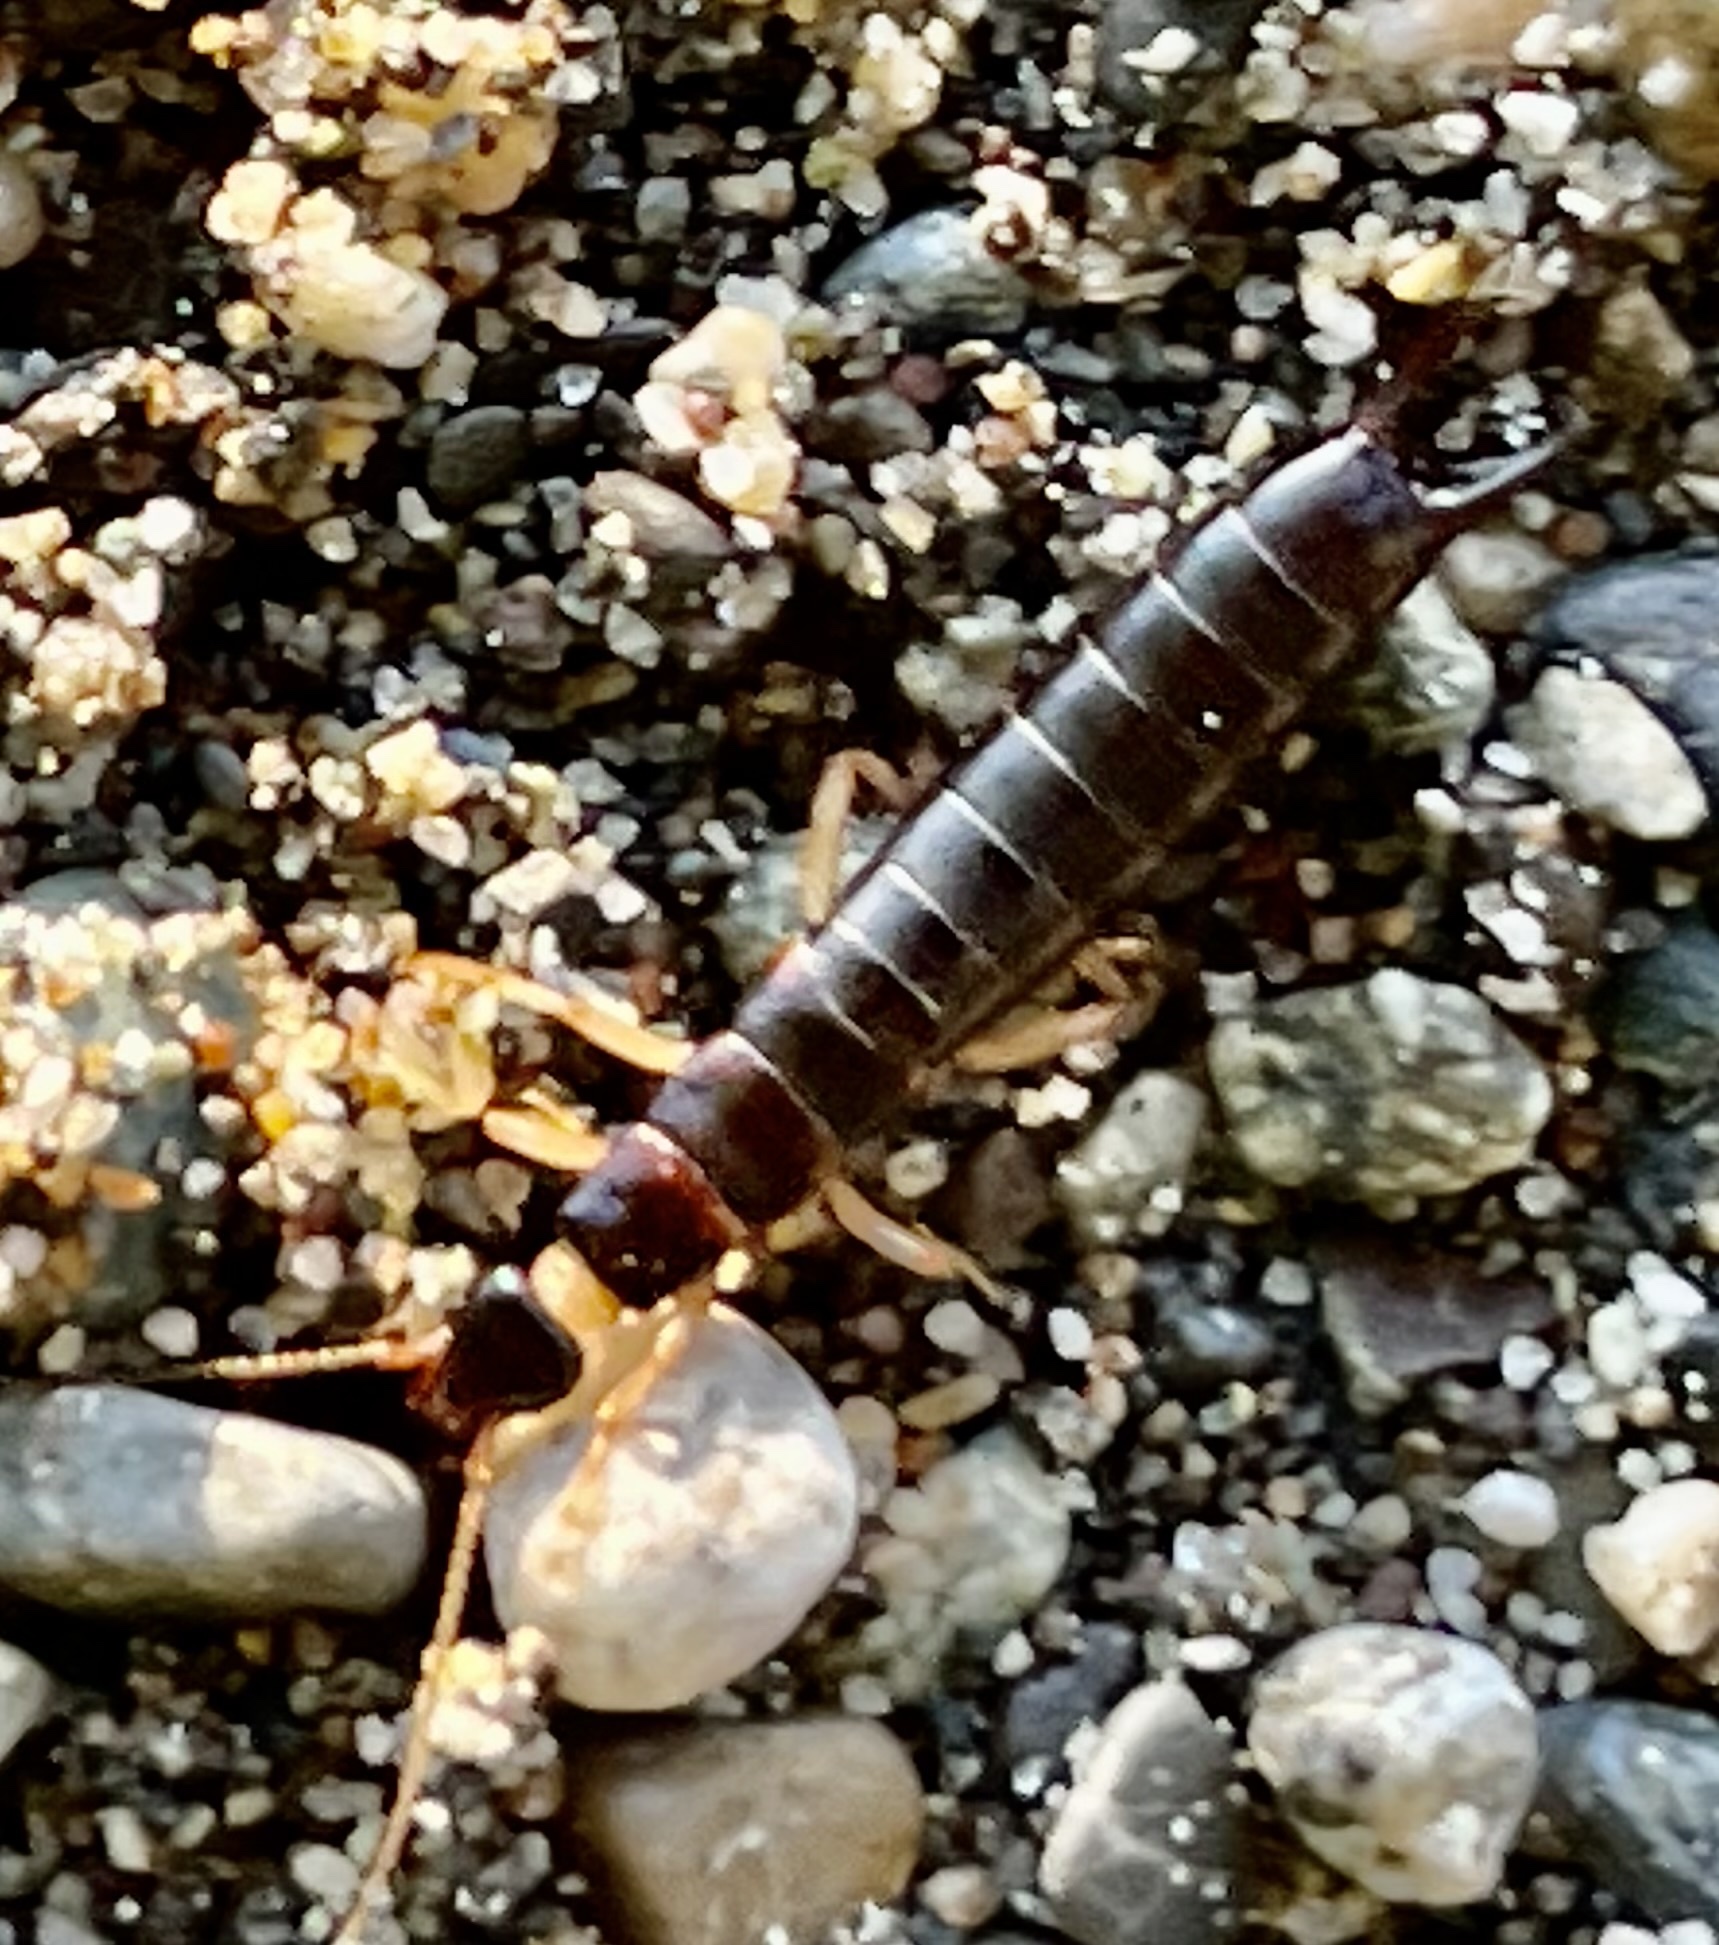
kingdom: Animalia
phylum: Arthropoda
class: Insecta
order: Dermaptera
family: Anisolabididae
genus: Anisolabis
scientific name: Anisolabis maritima
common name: Maritime earwig
